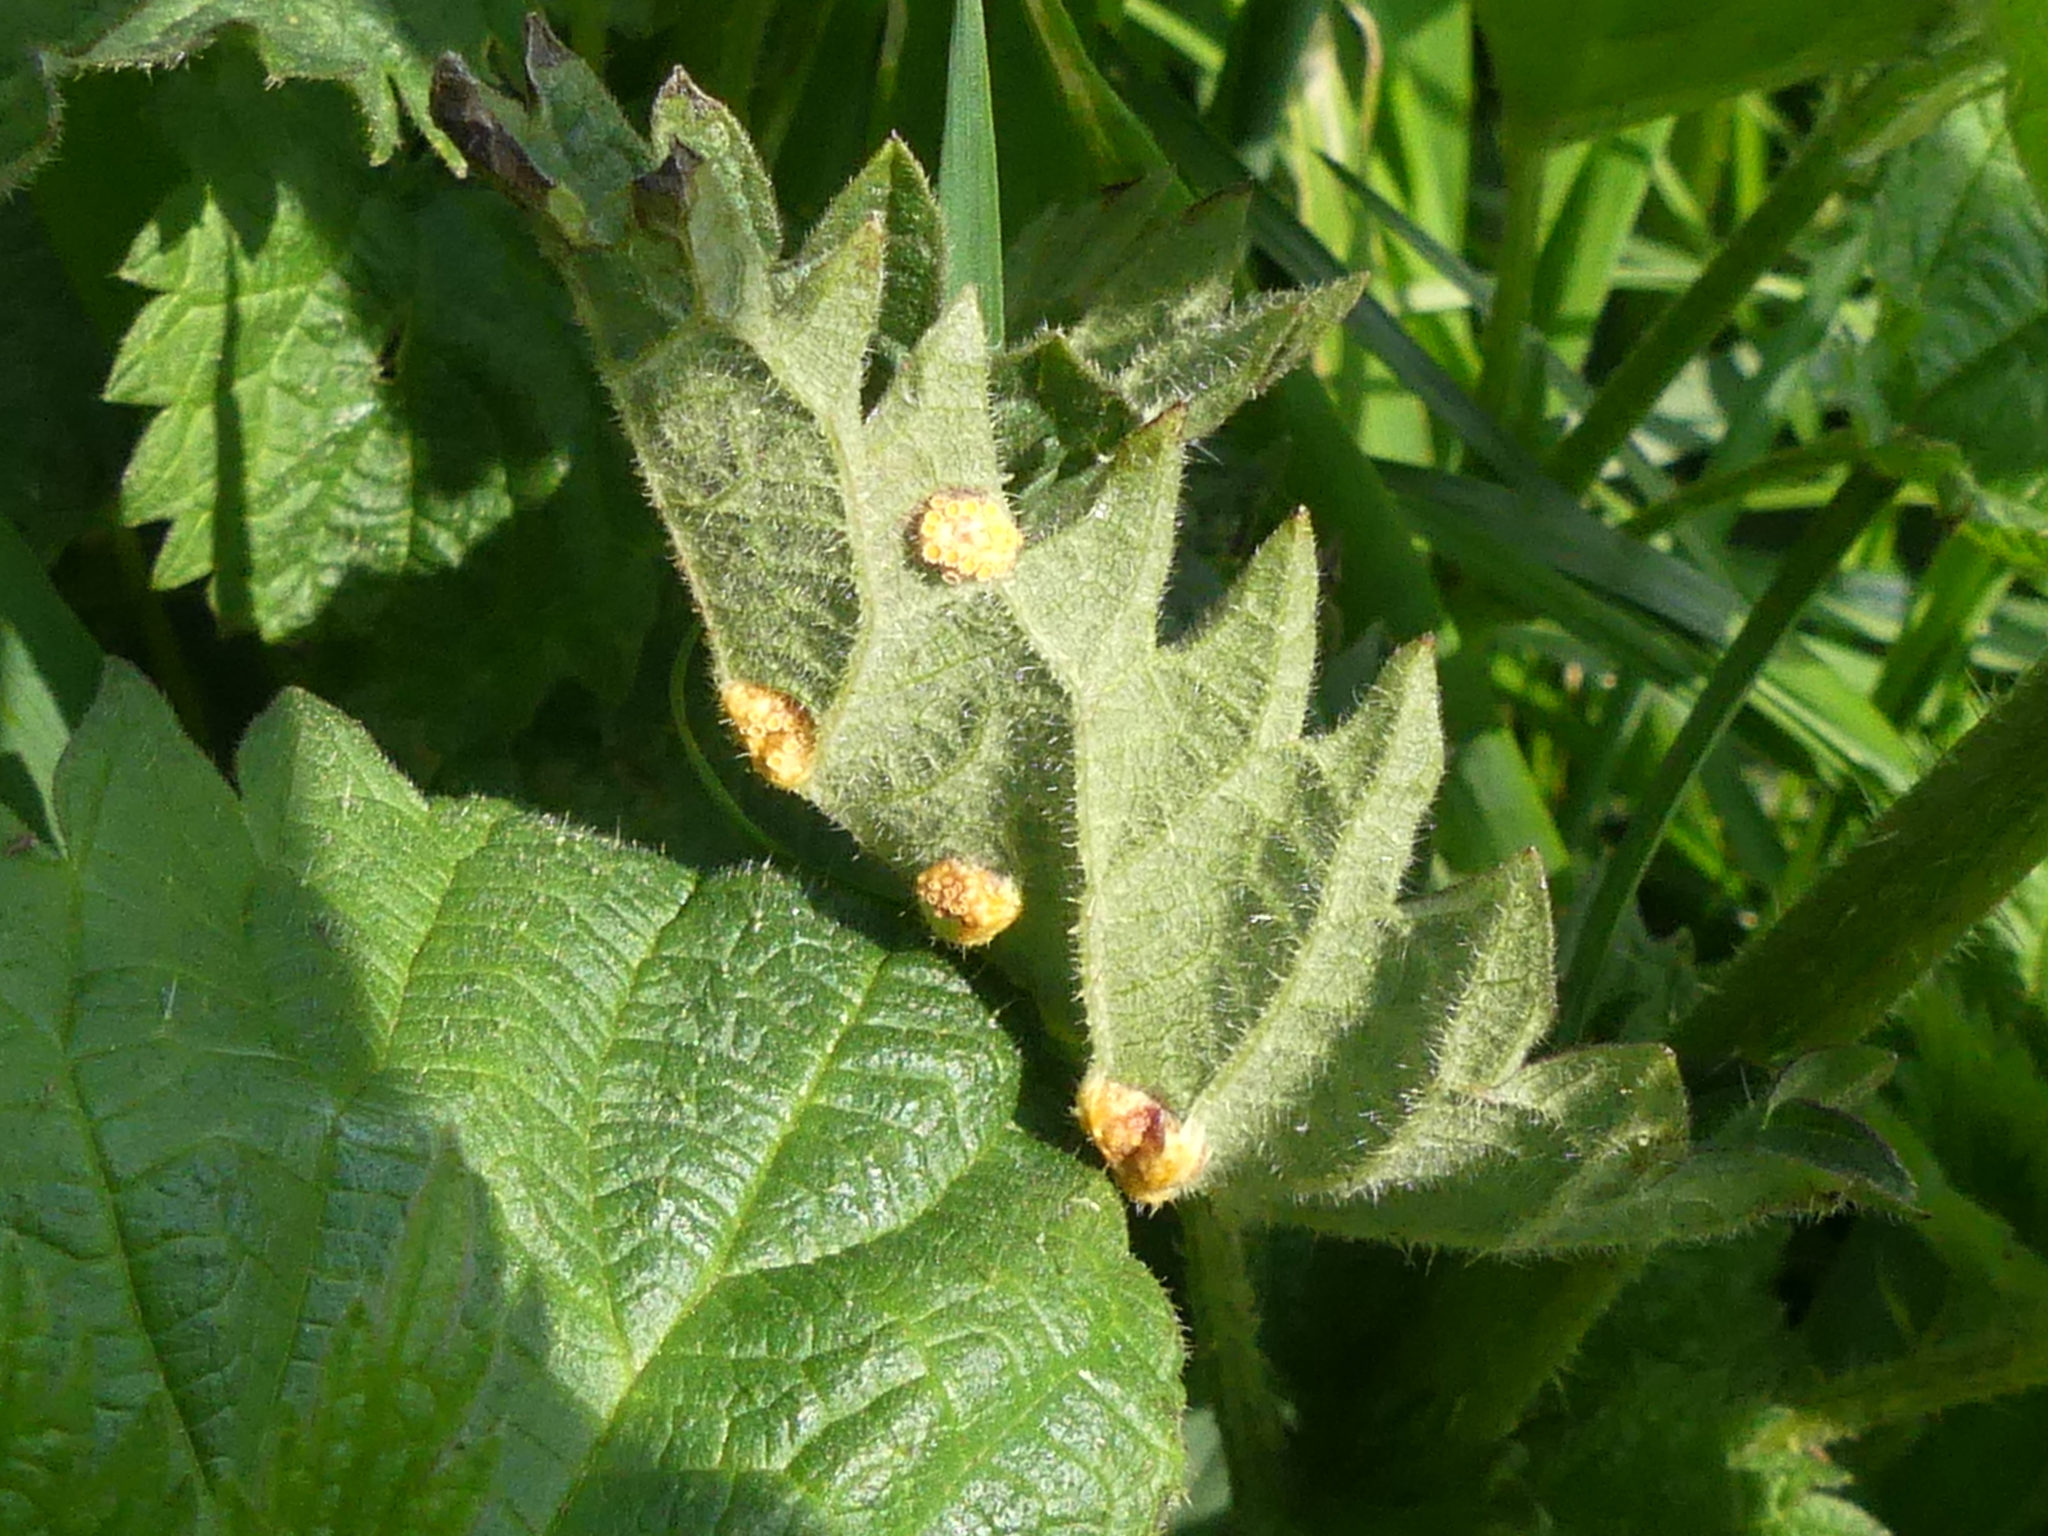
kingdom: Fungi
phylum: Basidiomycota
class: Pucciniomycetes
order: Pucciniales
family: Pucciniaceae
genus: Puccinia
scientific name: Puccinia urticata
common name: Nettle clustercup rust fungus
